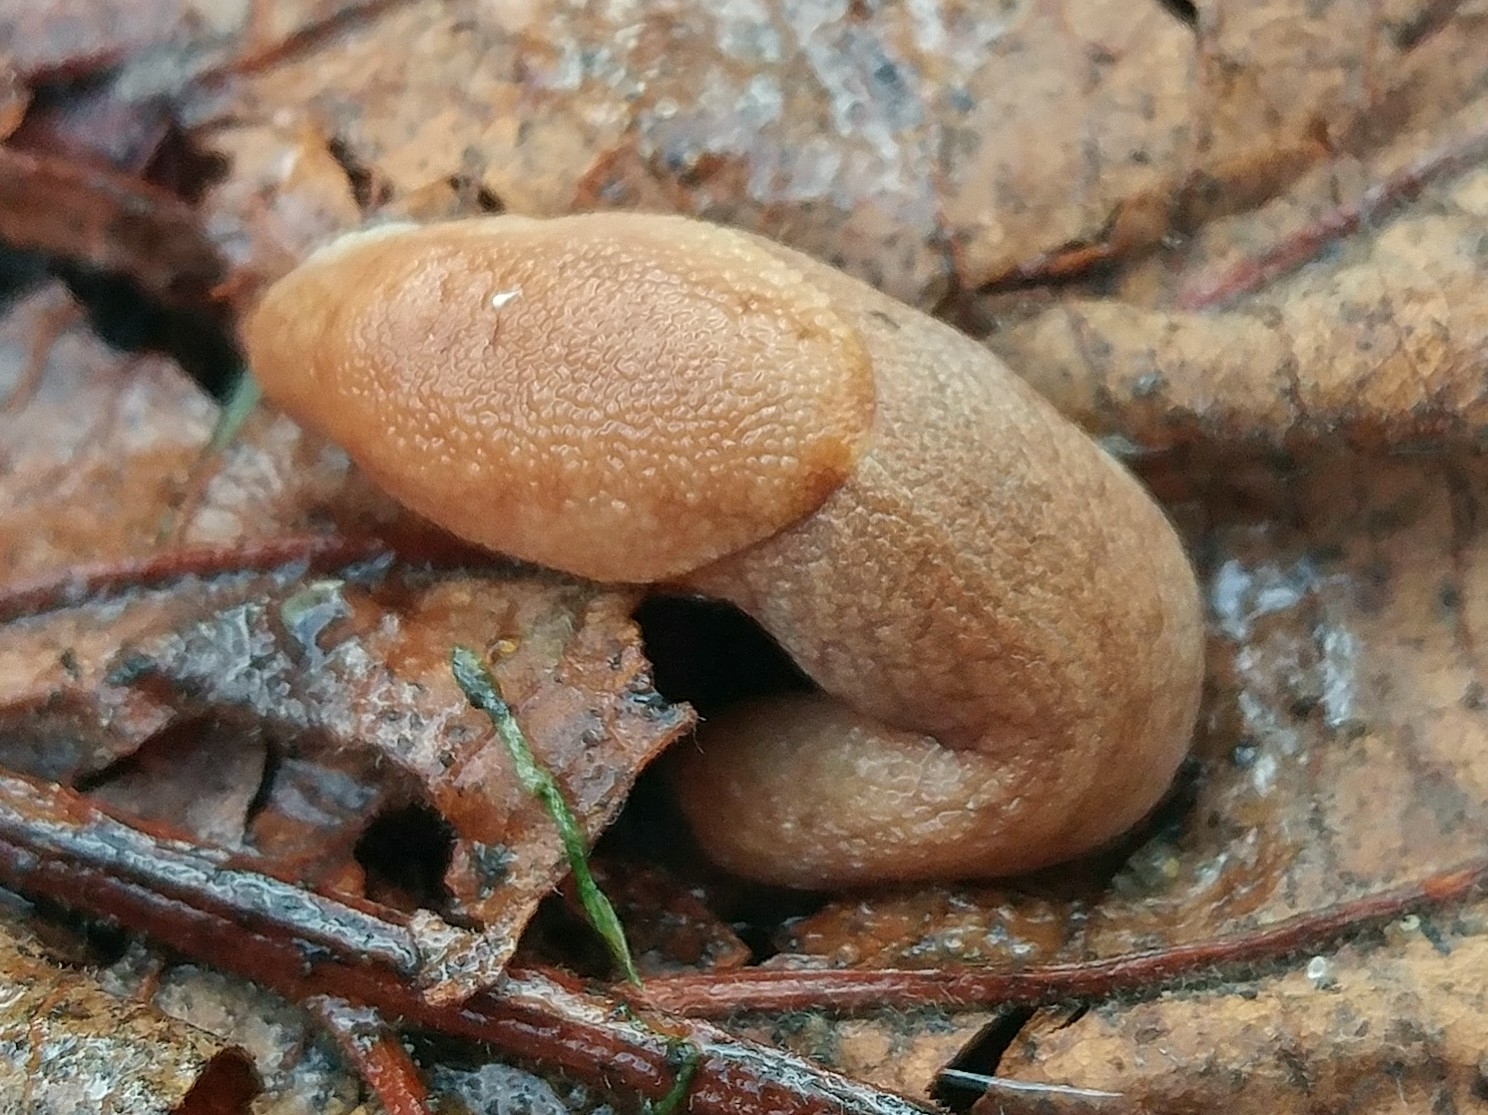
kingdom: Animalia
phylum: Mollusca
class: Gastropoda
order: Stylommatophora
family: Ariolimacidae
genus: Prophysaon
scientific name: Prophysaon andersonii
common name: Reticulate taildropper
